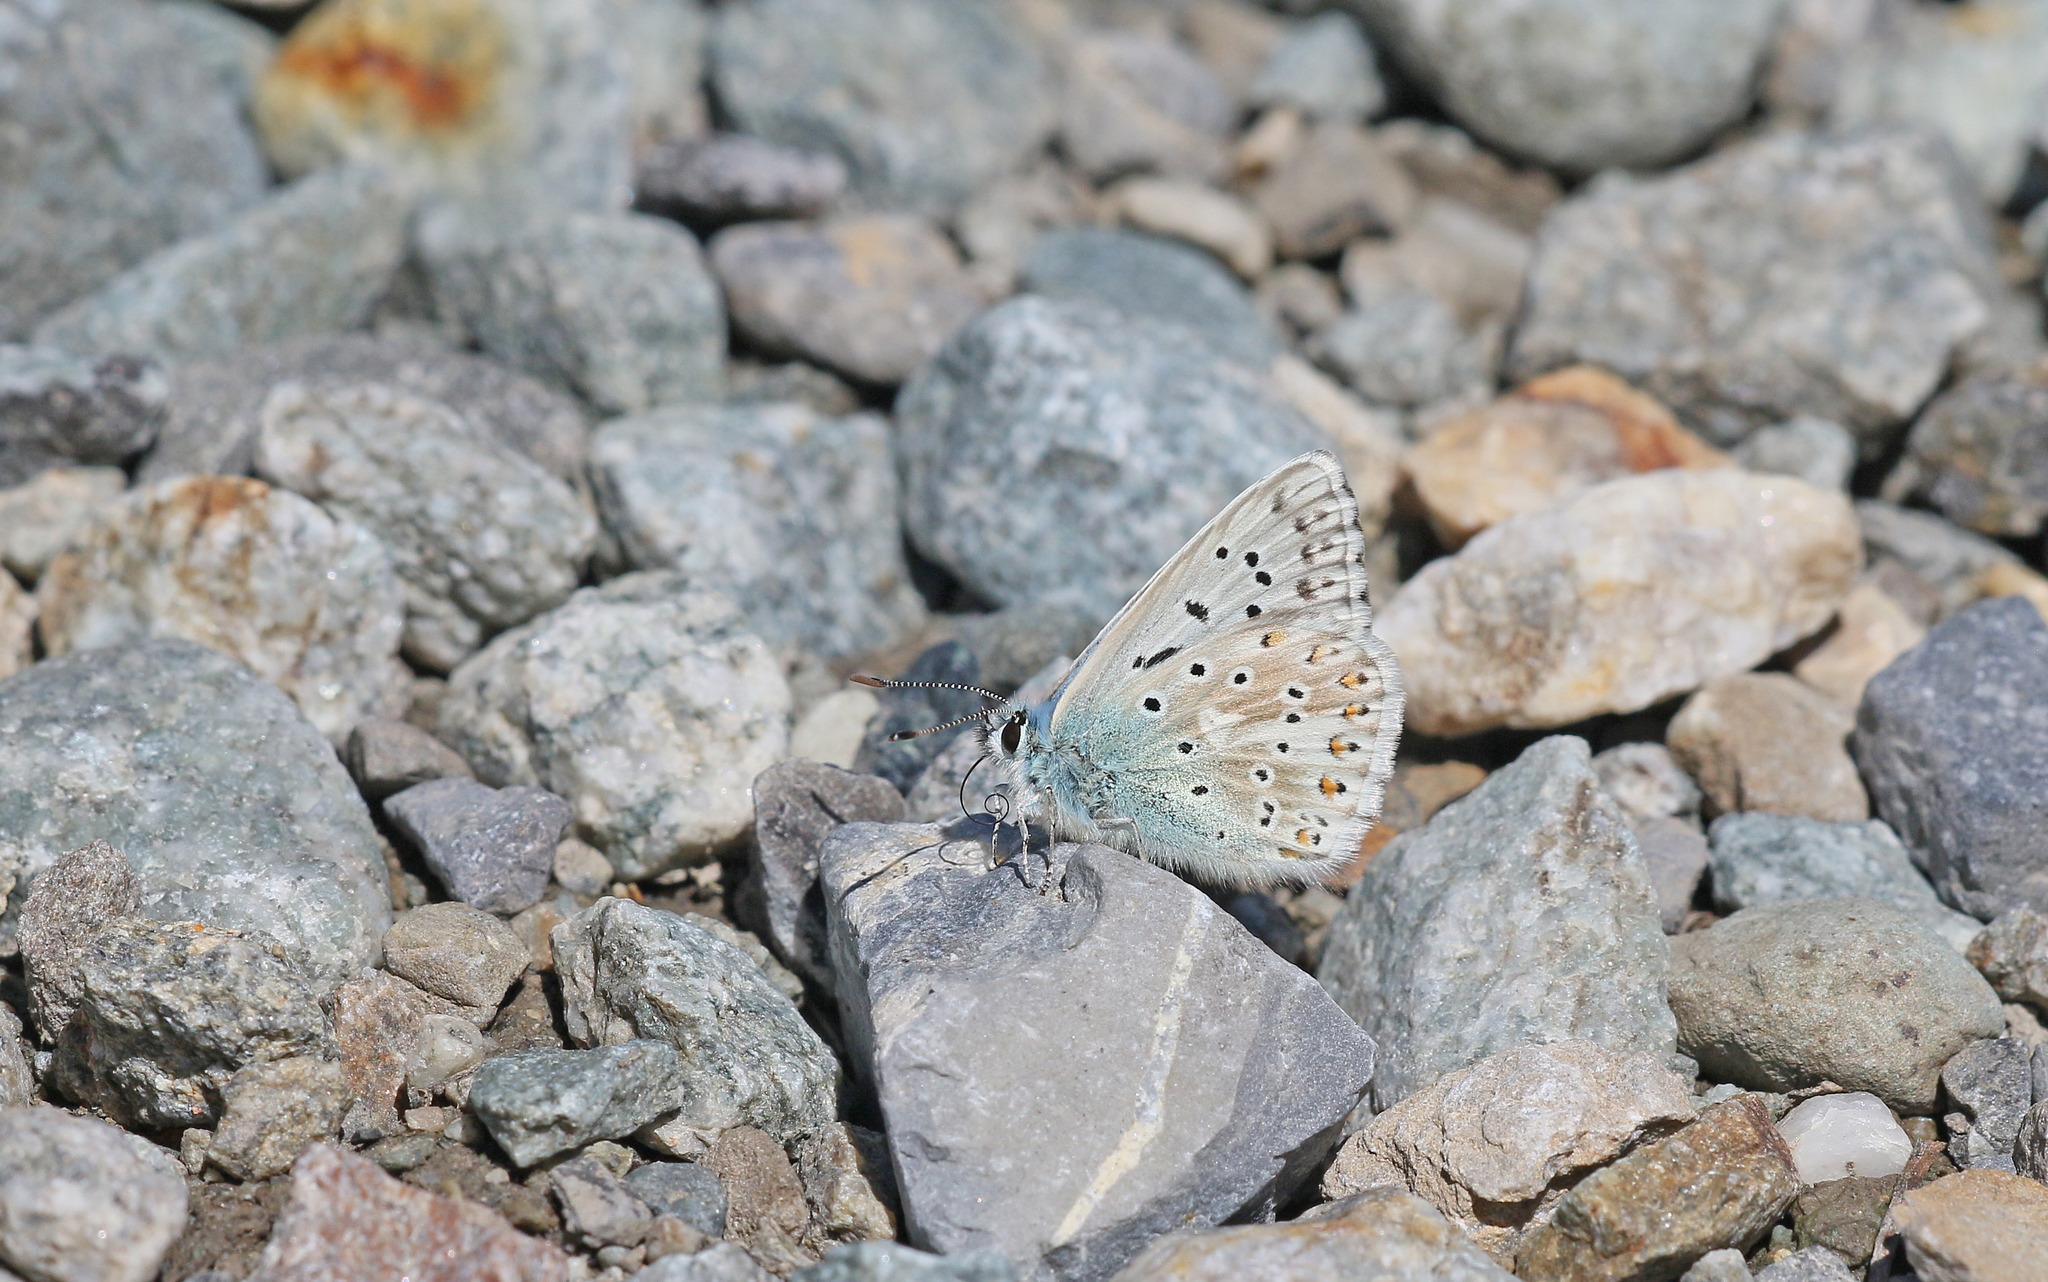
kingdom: Animalia
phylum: Arthropoda
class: Insecta
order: Lepidoptera
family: Lycaenidae
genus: Lysandra
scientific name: Lysandra coridon
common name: Chalkhill blue
